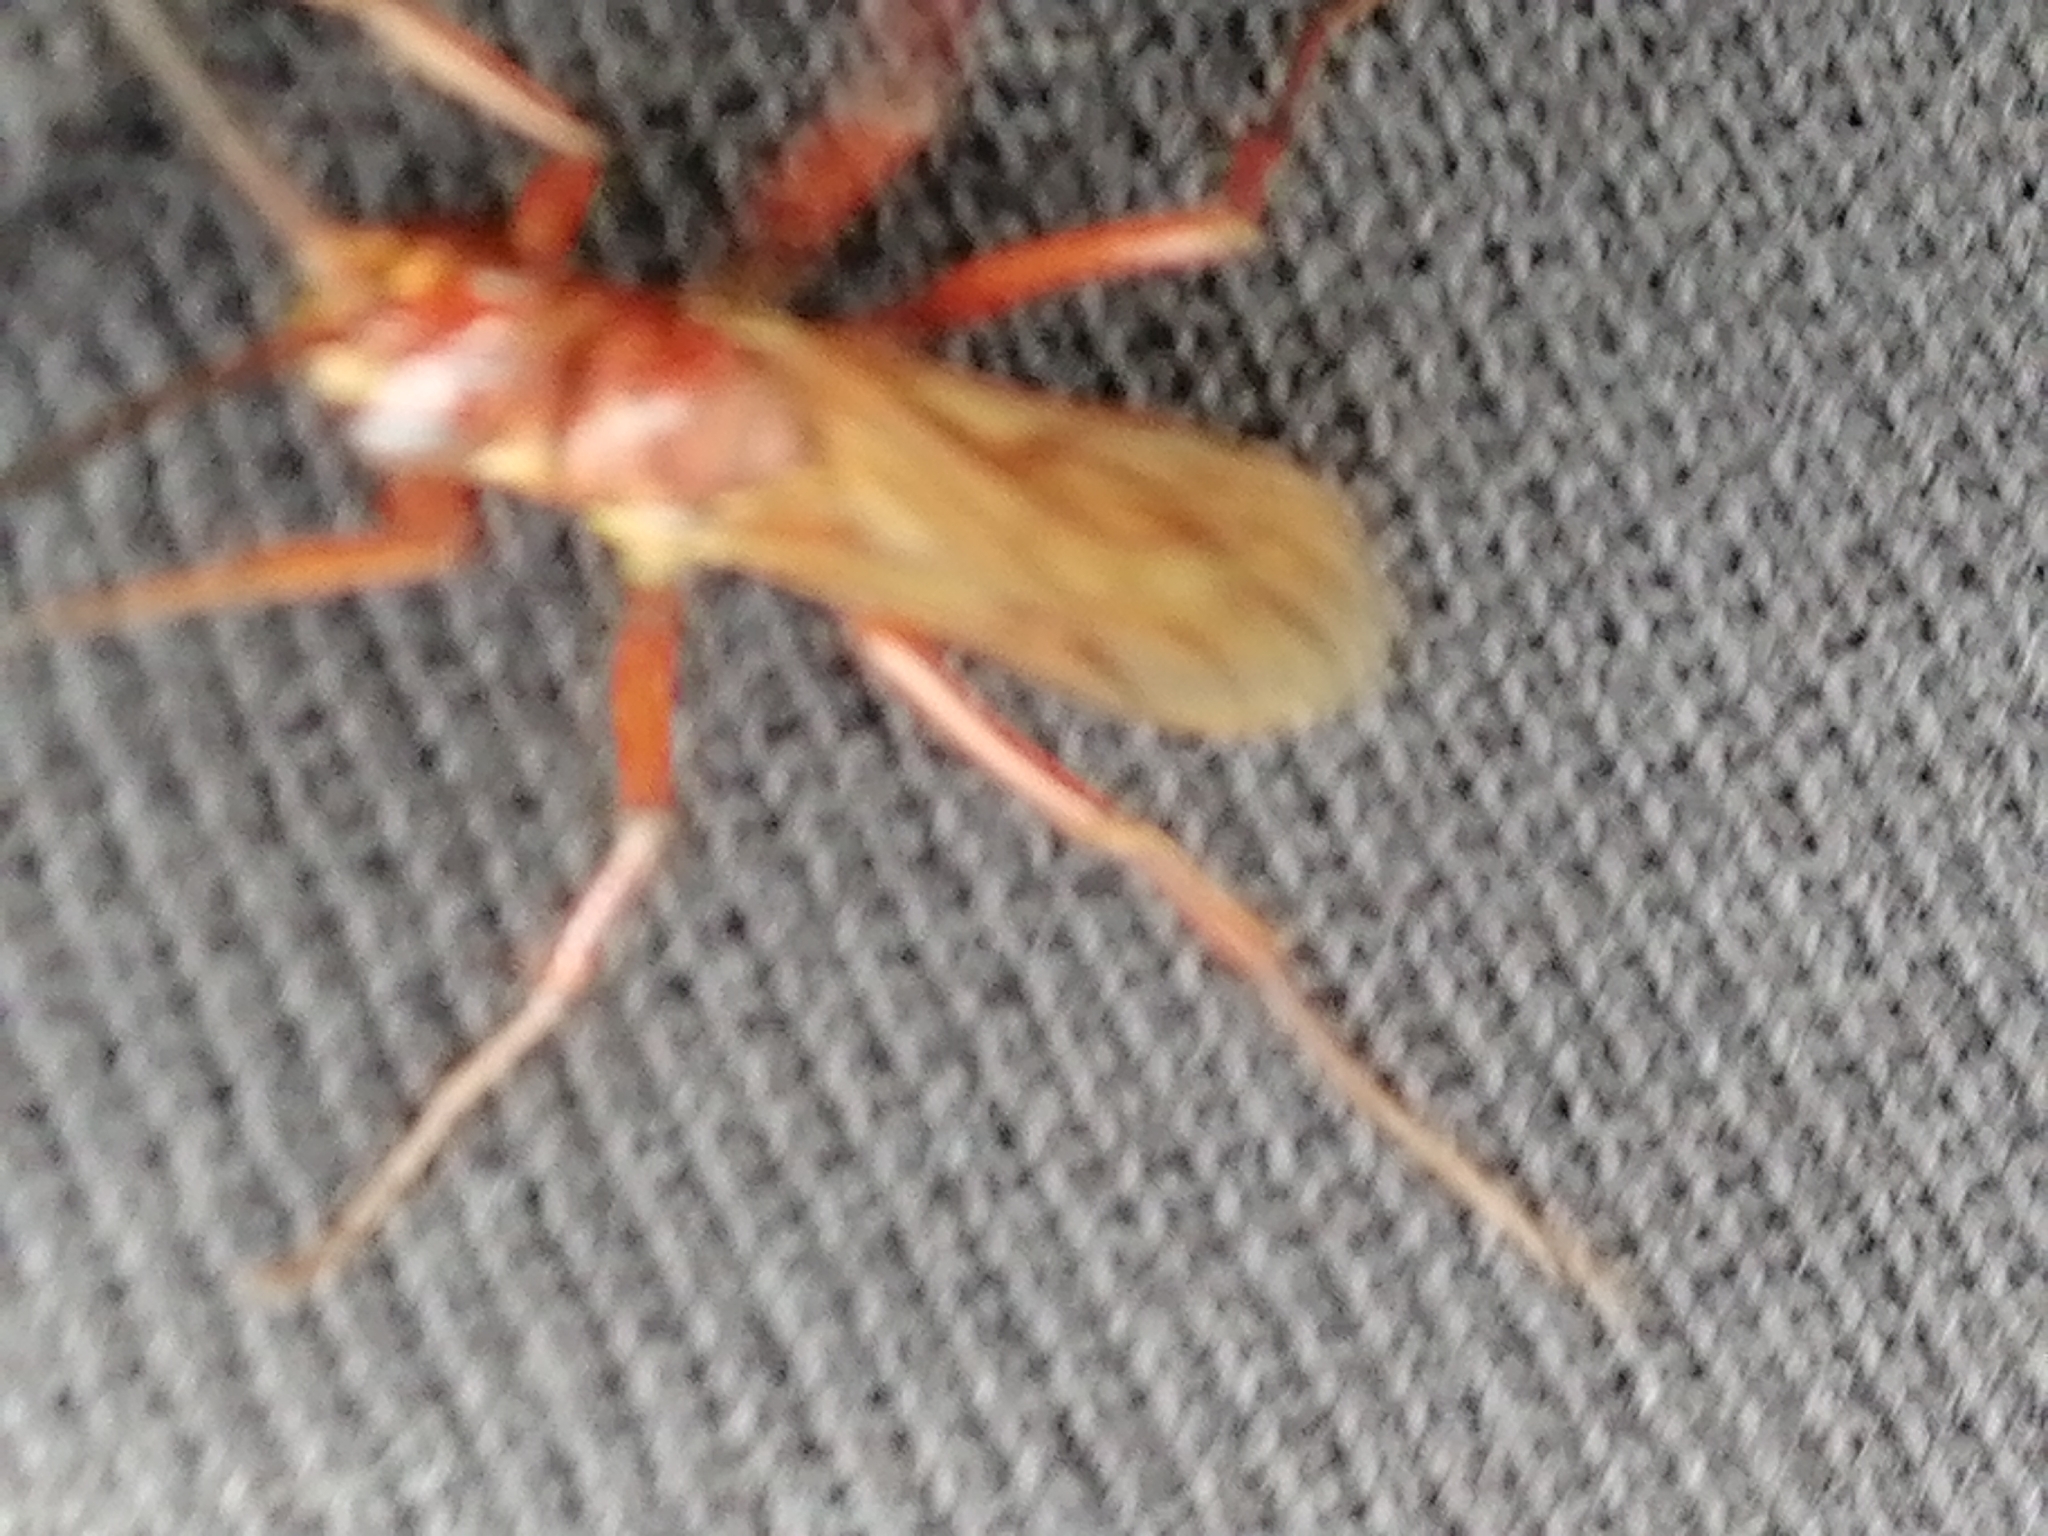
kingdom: Animalia
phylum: Arthropoda
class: Insecta
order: Hymenoptera
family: Pompilidae
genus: Sphictostethus
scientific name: Sphictostethus nitidus
